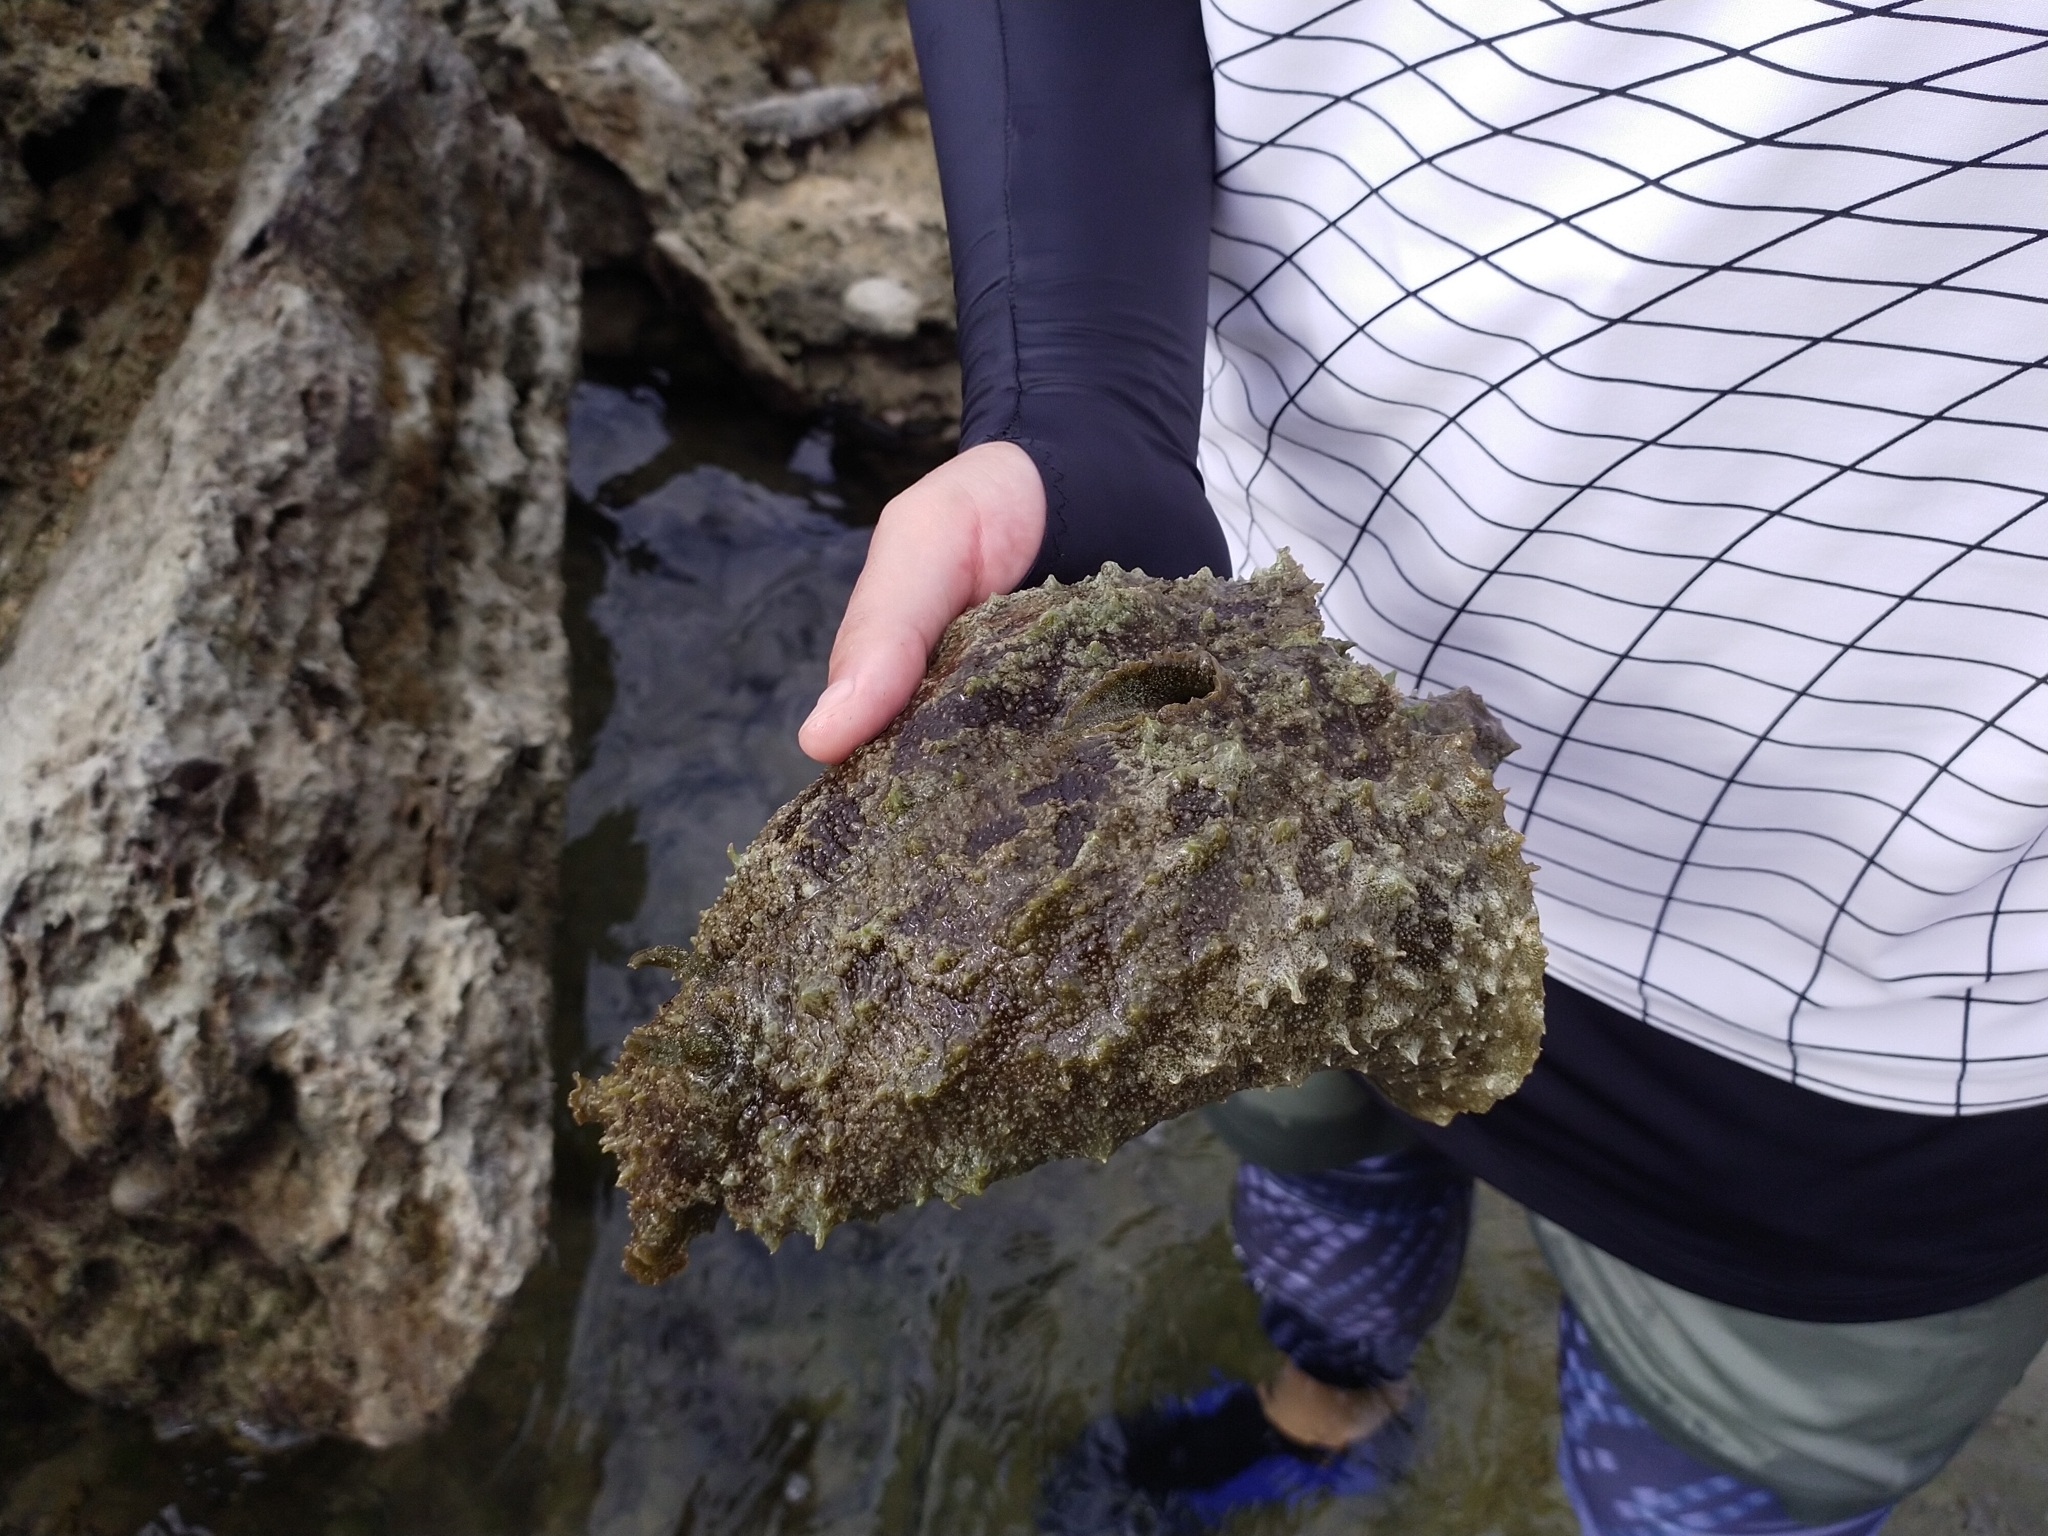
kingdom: Animalia
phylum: Mollusca
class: Gastropoda
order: Aplysiida
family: Aplysiidae
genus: Dolabella
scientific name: Dolabella auricularia
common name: Blunt-end seahare
